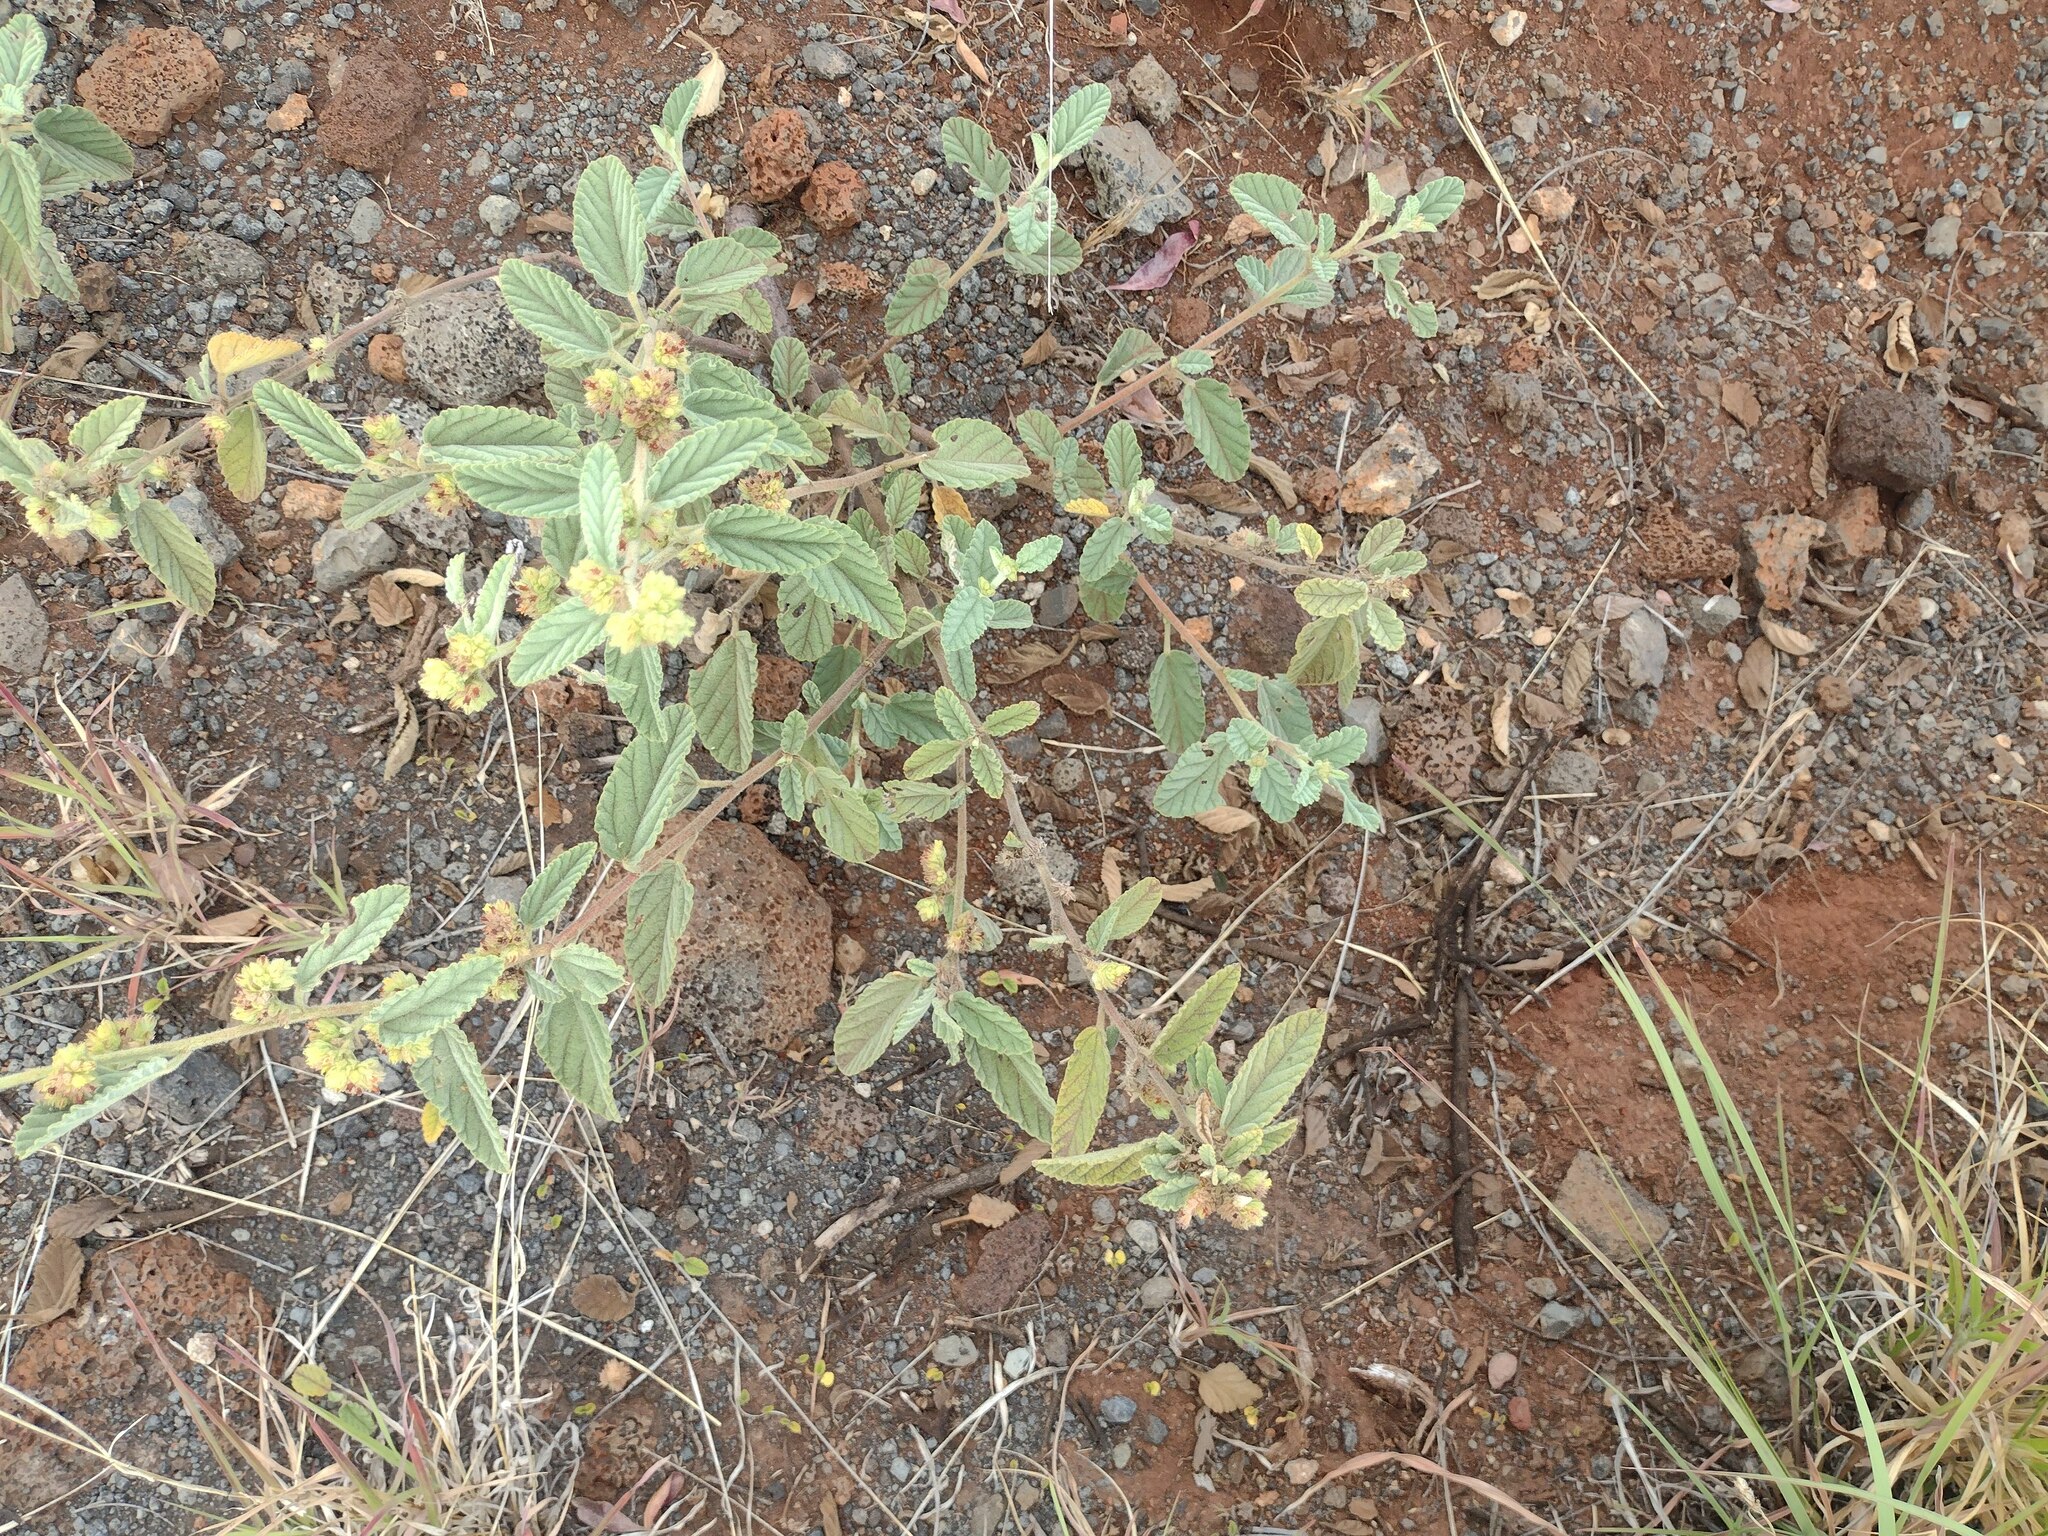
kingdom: Plantae
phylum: Tracheophyta
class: Magnoliopsida
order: Malvales
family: Malvaceae
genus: Waltheria
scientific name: Waltheria indica
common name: Leather-coat
